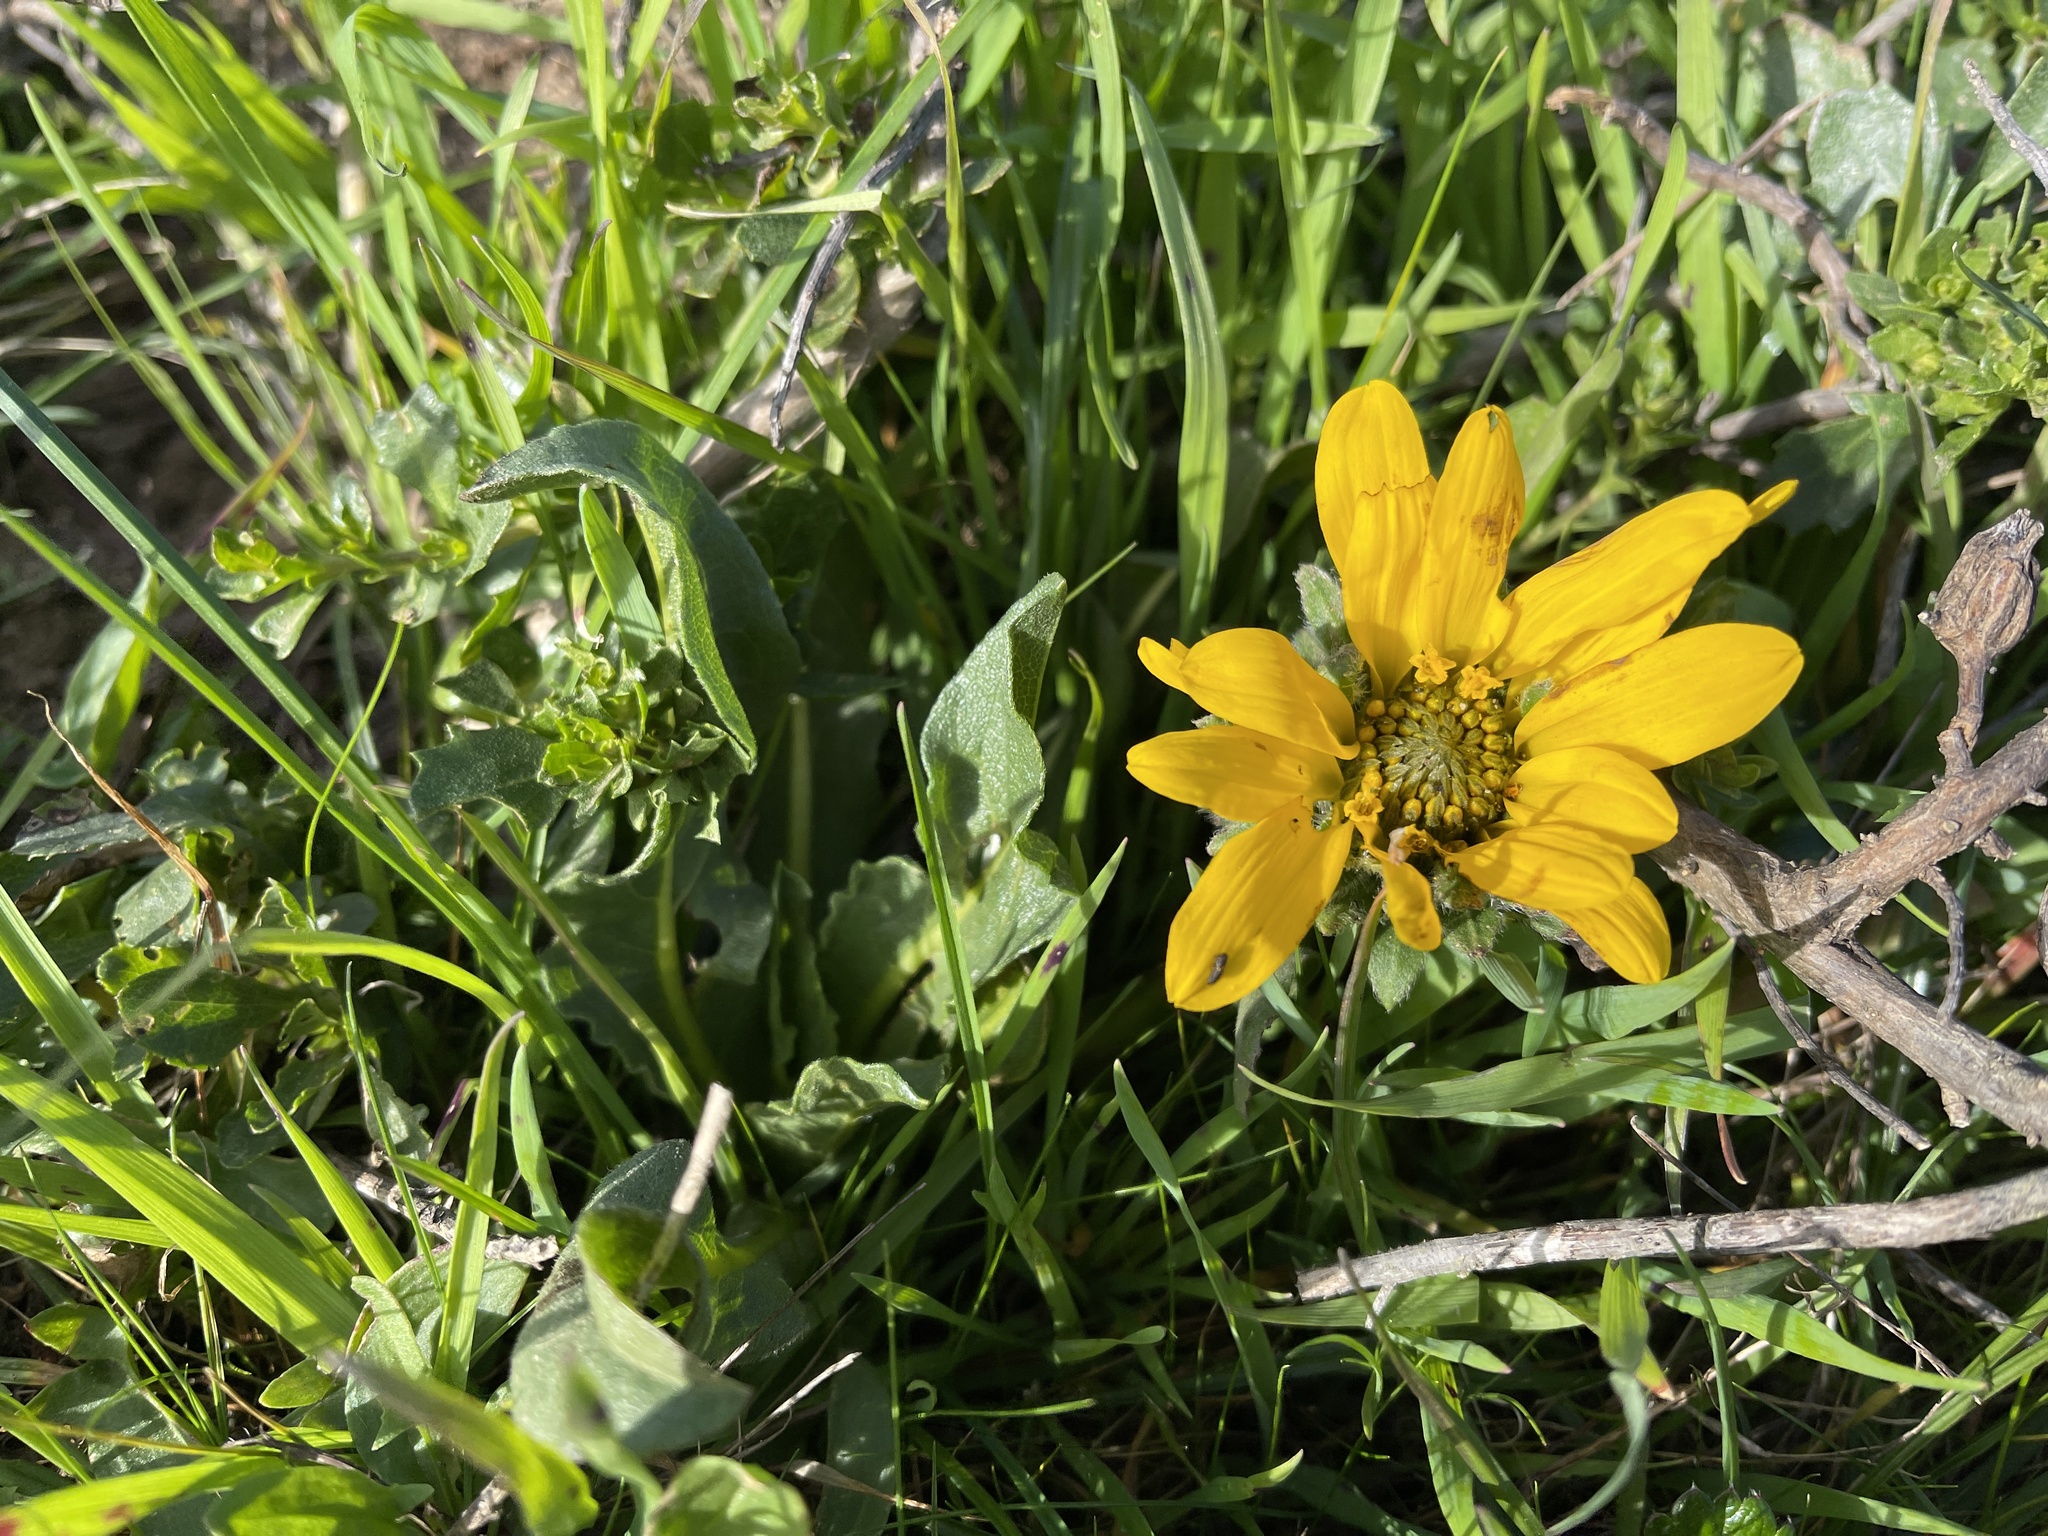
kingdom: Plantae
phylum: Tracheophyta
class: Magnoliopsida
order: Asterales
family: Asteraceae
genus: Wyethia
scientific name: Wyethia angustifolia
